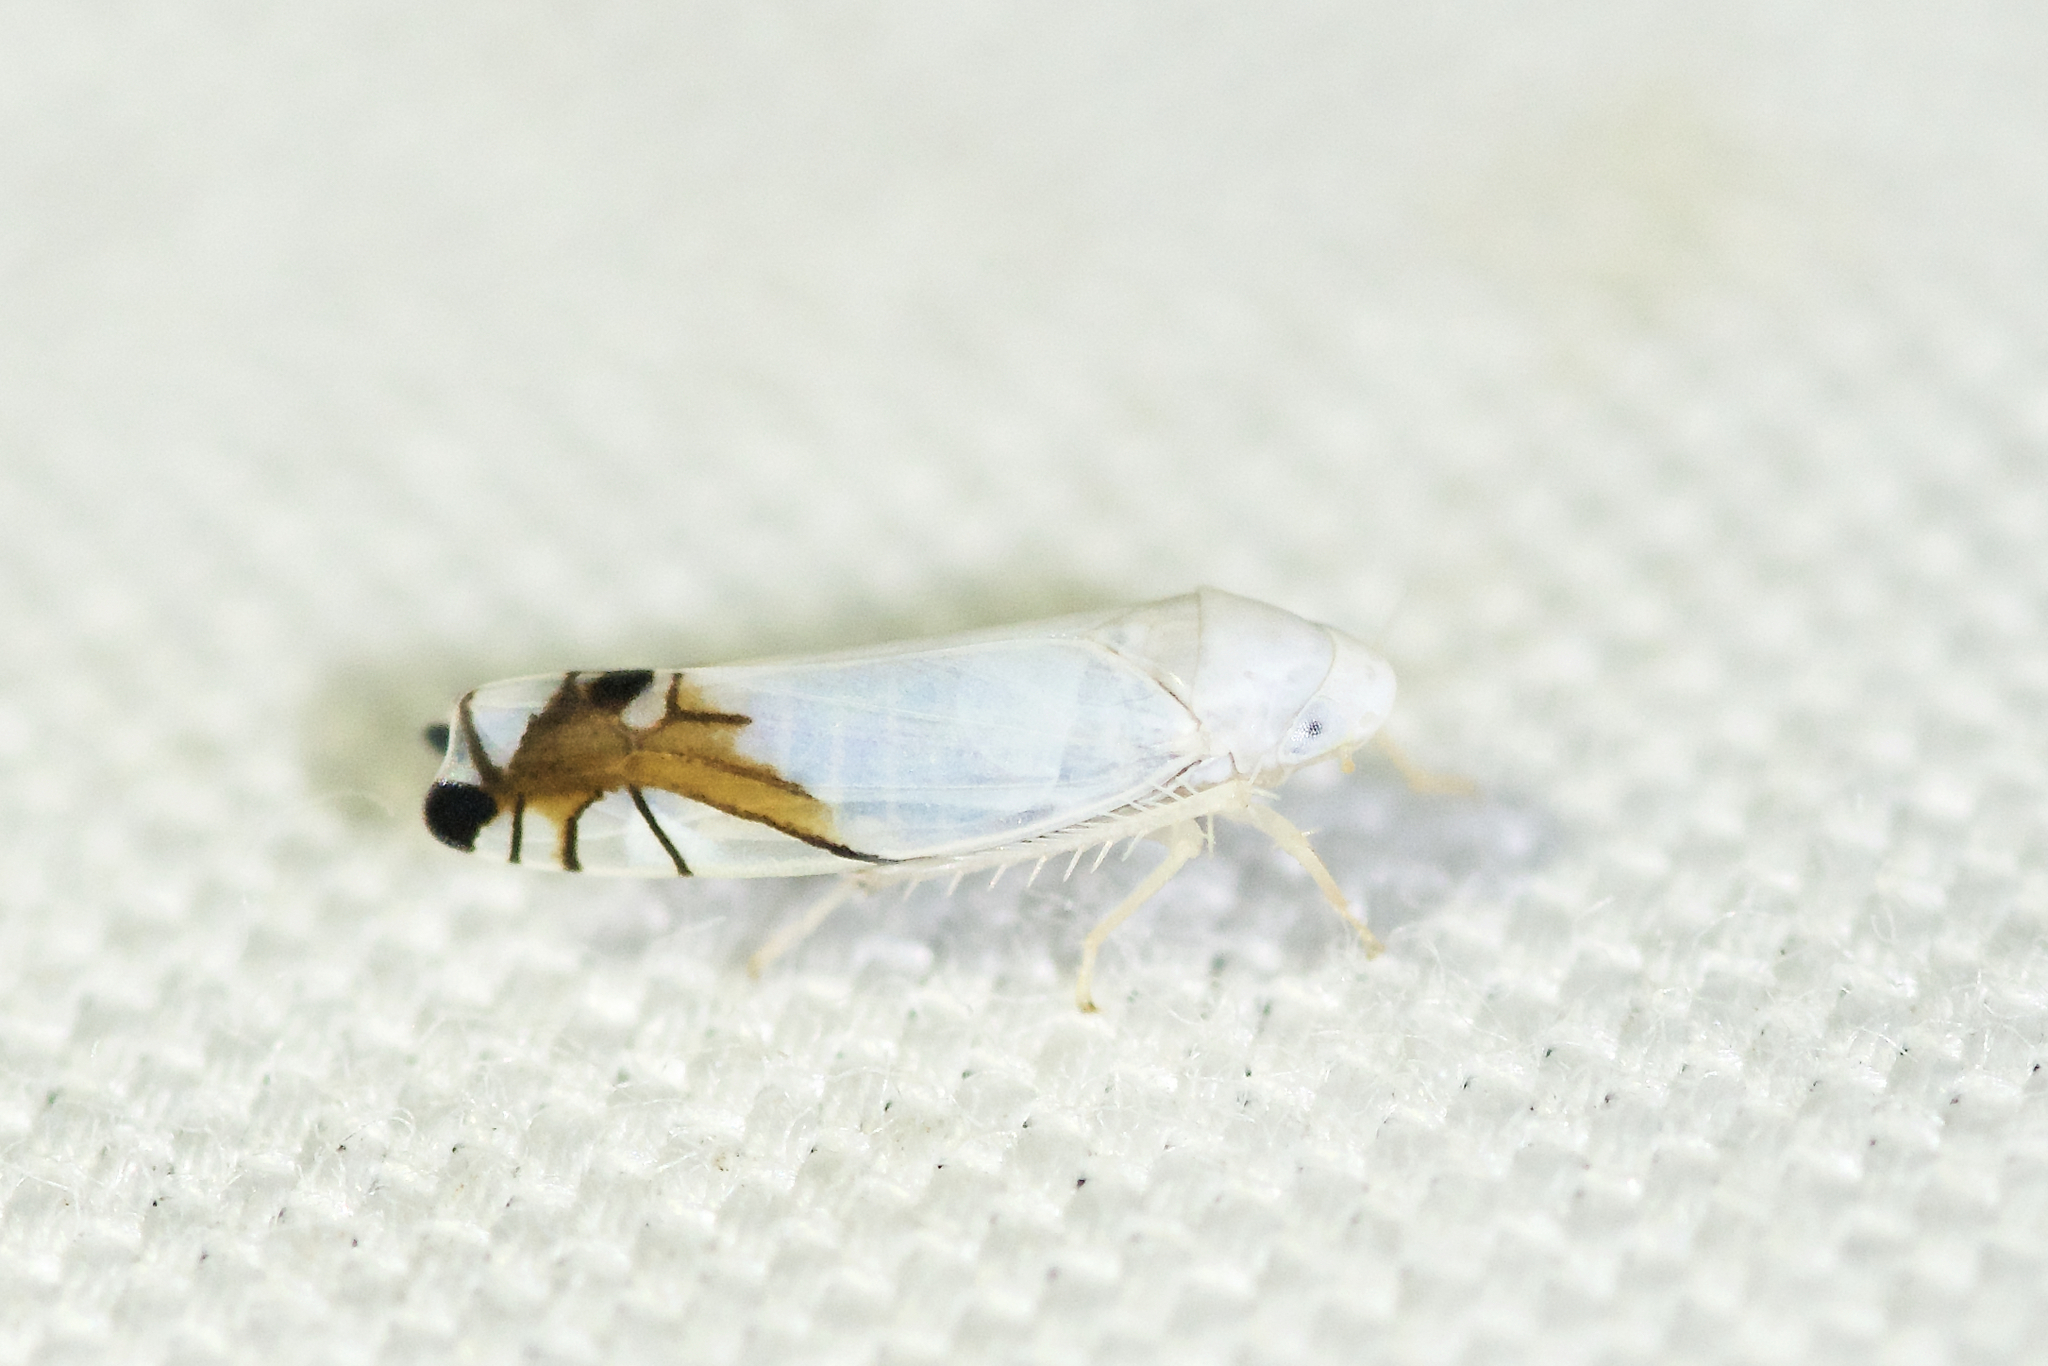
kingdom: Animalia
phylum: Arthropoda
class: Insecta
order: Hemiptera
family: Cicadellidae
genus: Aguriahana
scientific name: Aguriahana stellulata
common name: Leafhopper
